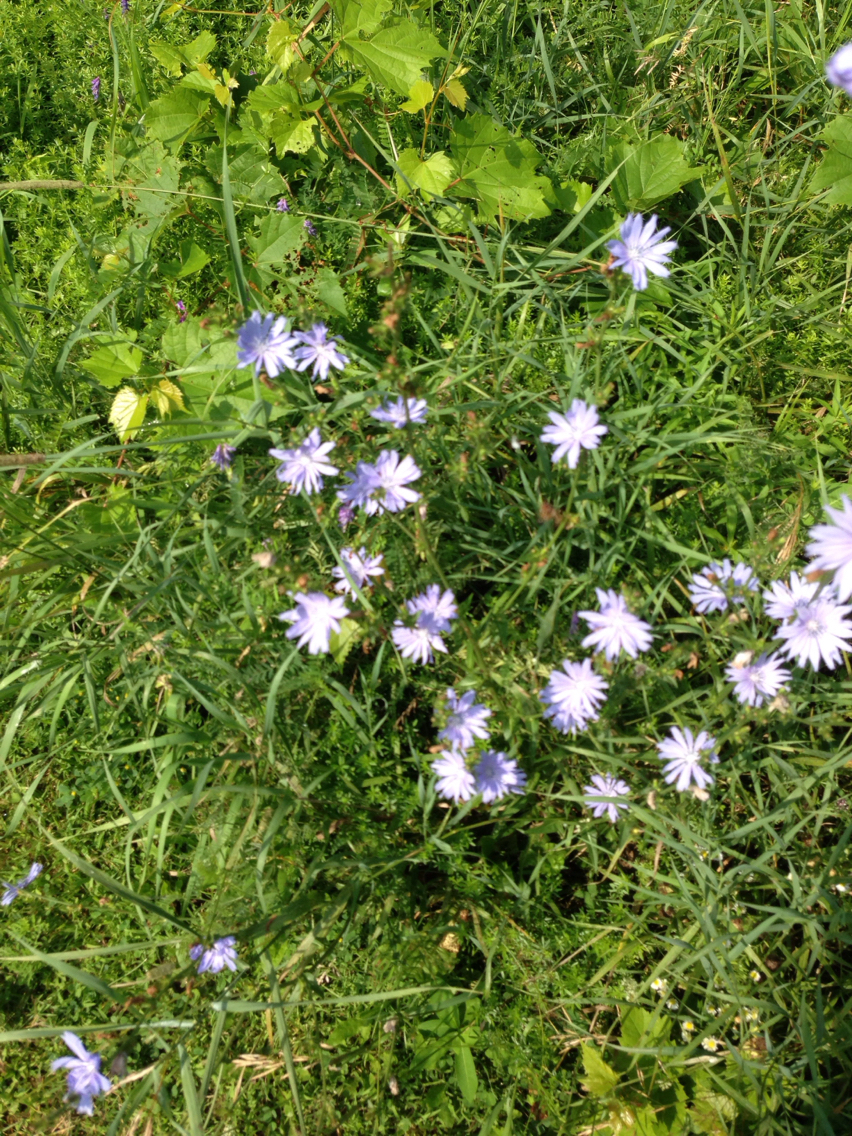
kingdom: Plantae
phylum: Tracheophyta
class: Magnoliopsida
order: Asterales
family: Asteraceae
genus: Cichorium
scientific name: Cichorium intybus
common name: Chicory
